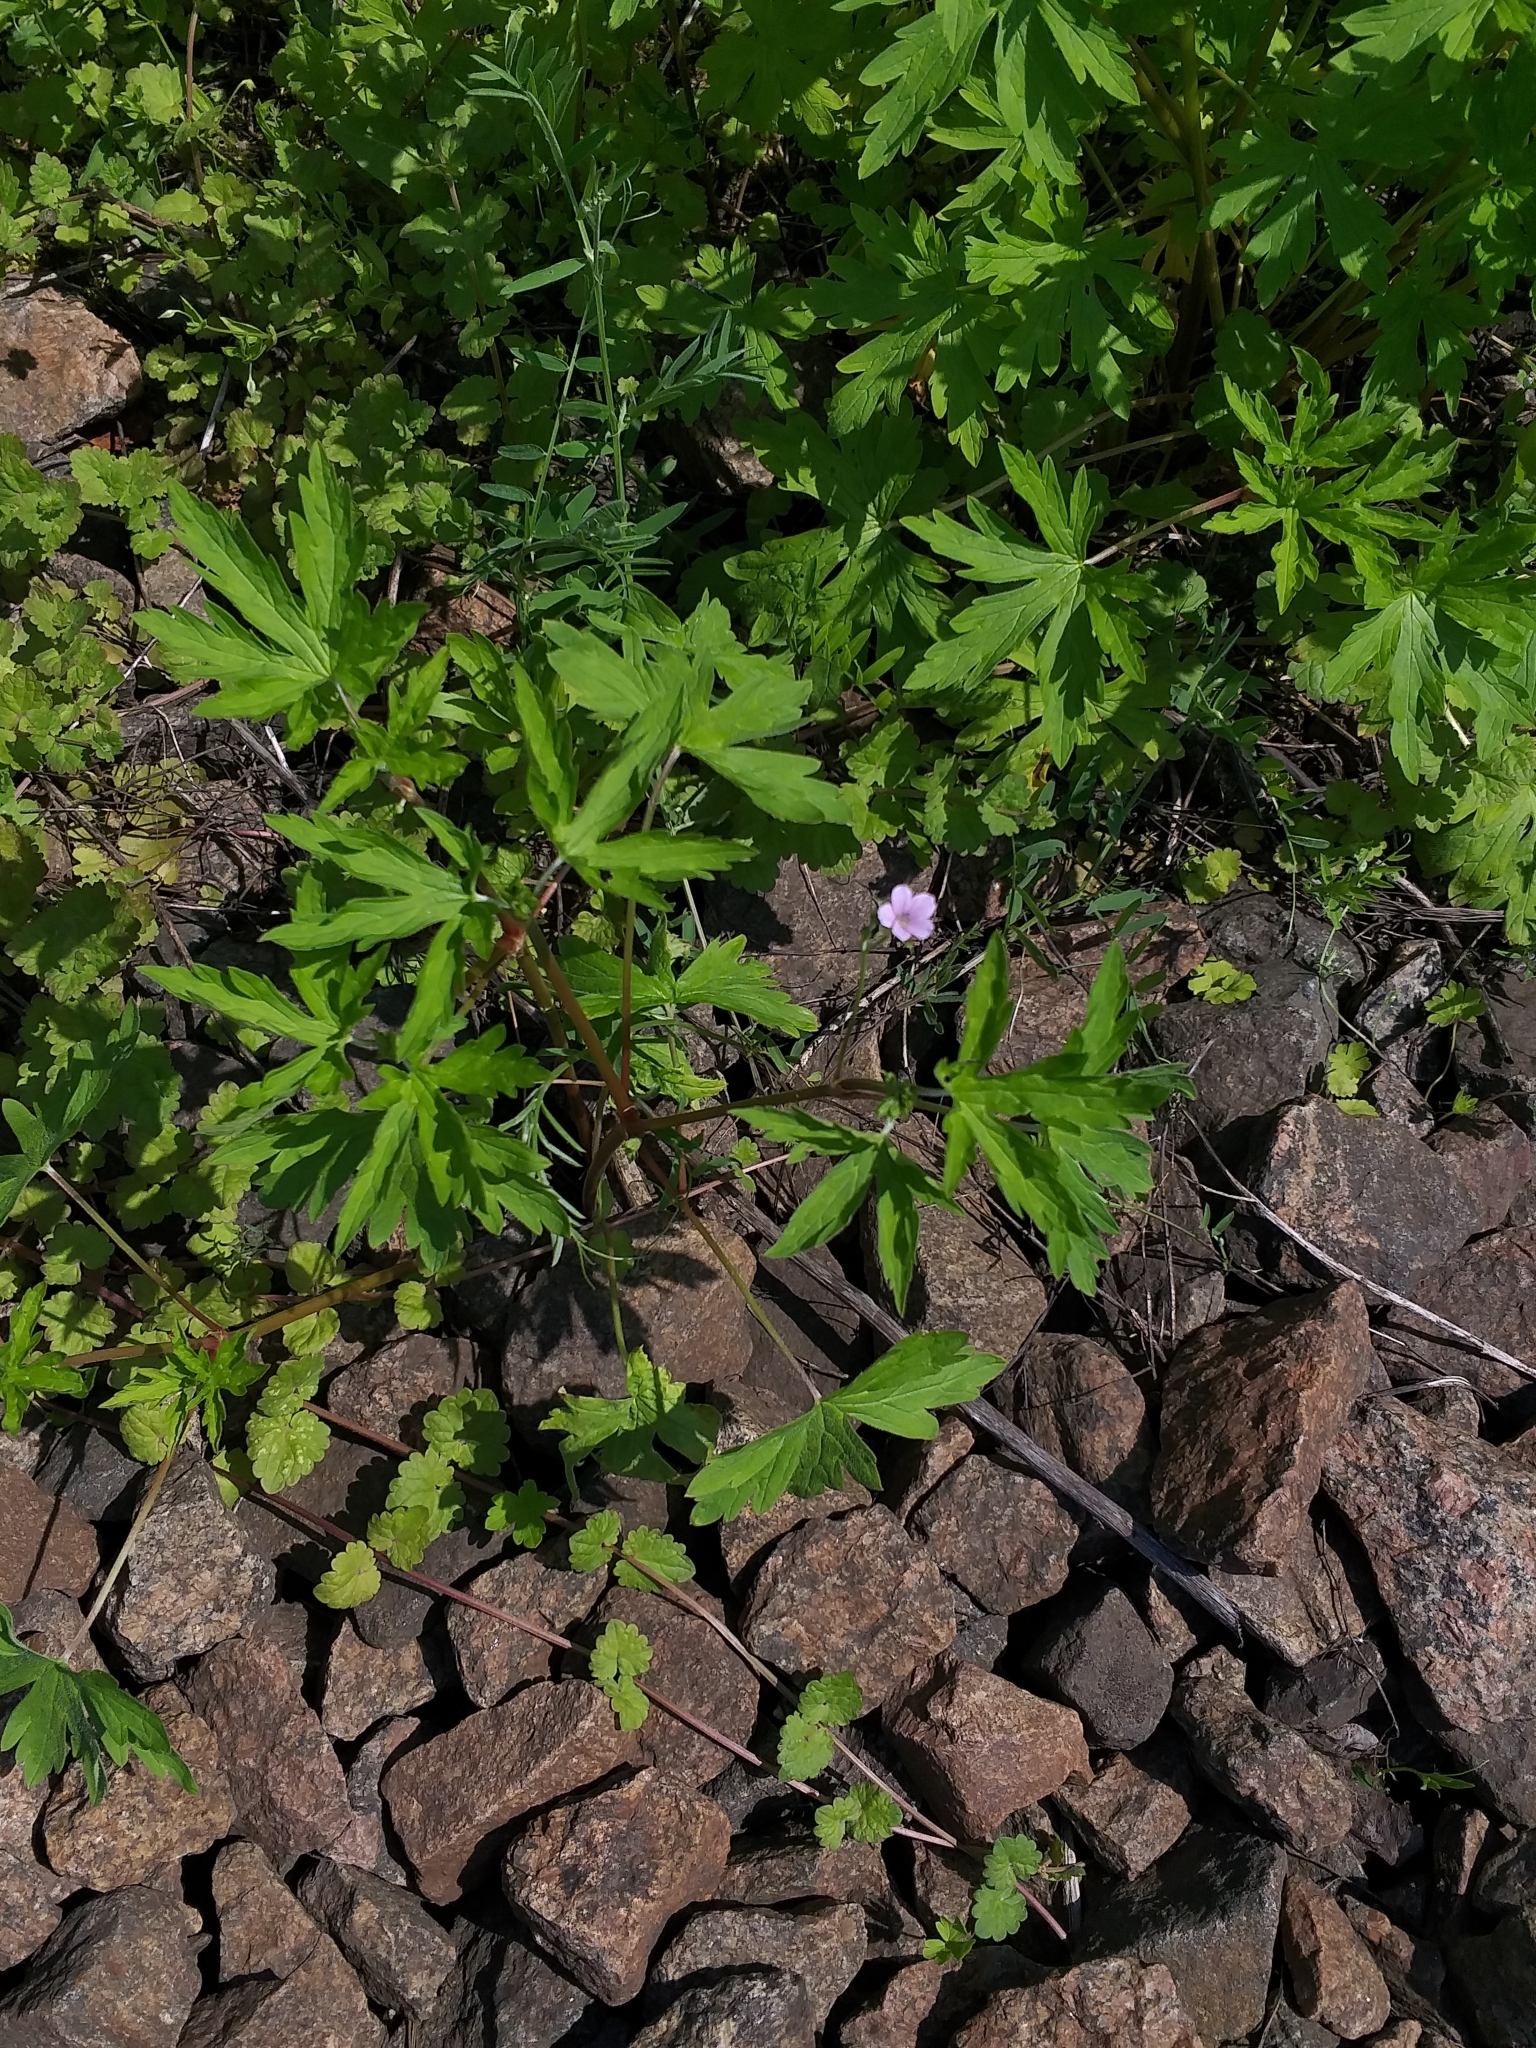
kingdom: Plantae
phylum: Tracheophyta
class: Magnoliopsida
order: Geraniales
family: Geraniaceae
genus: Geranium
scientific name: Geranium sibiricum
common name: Siberian crane's-bill
